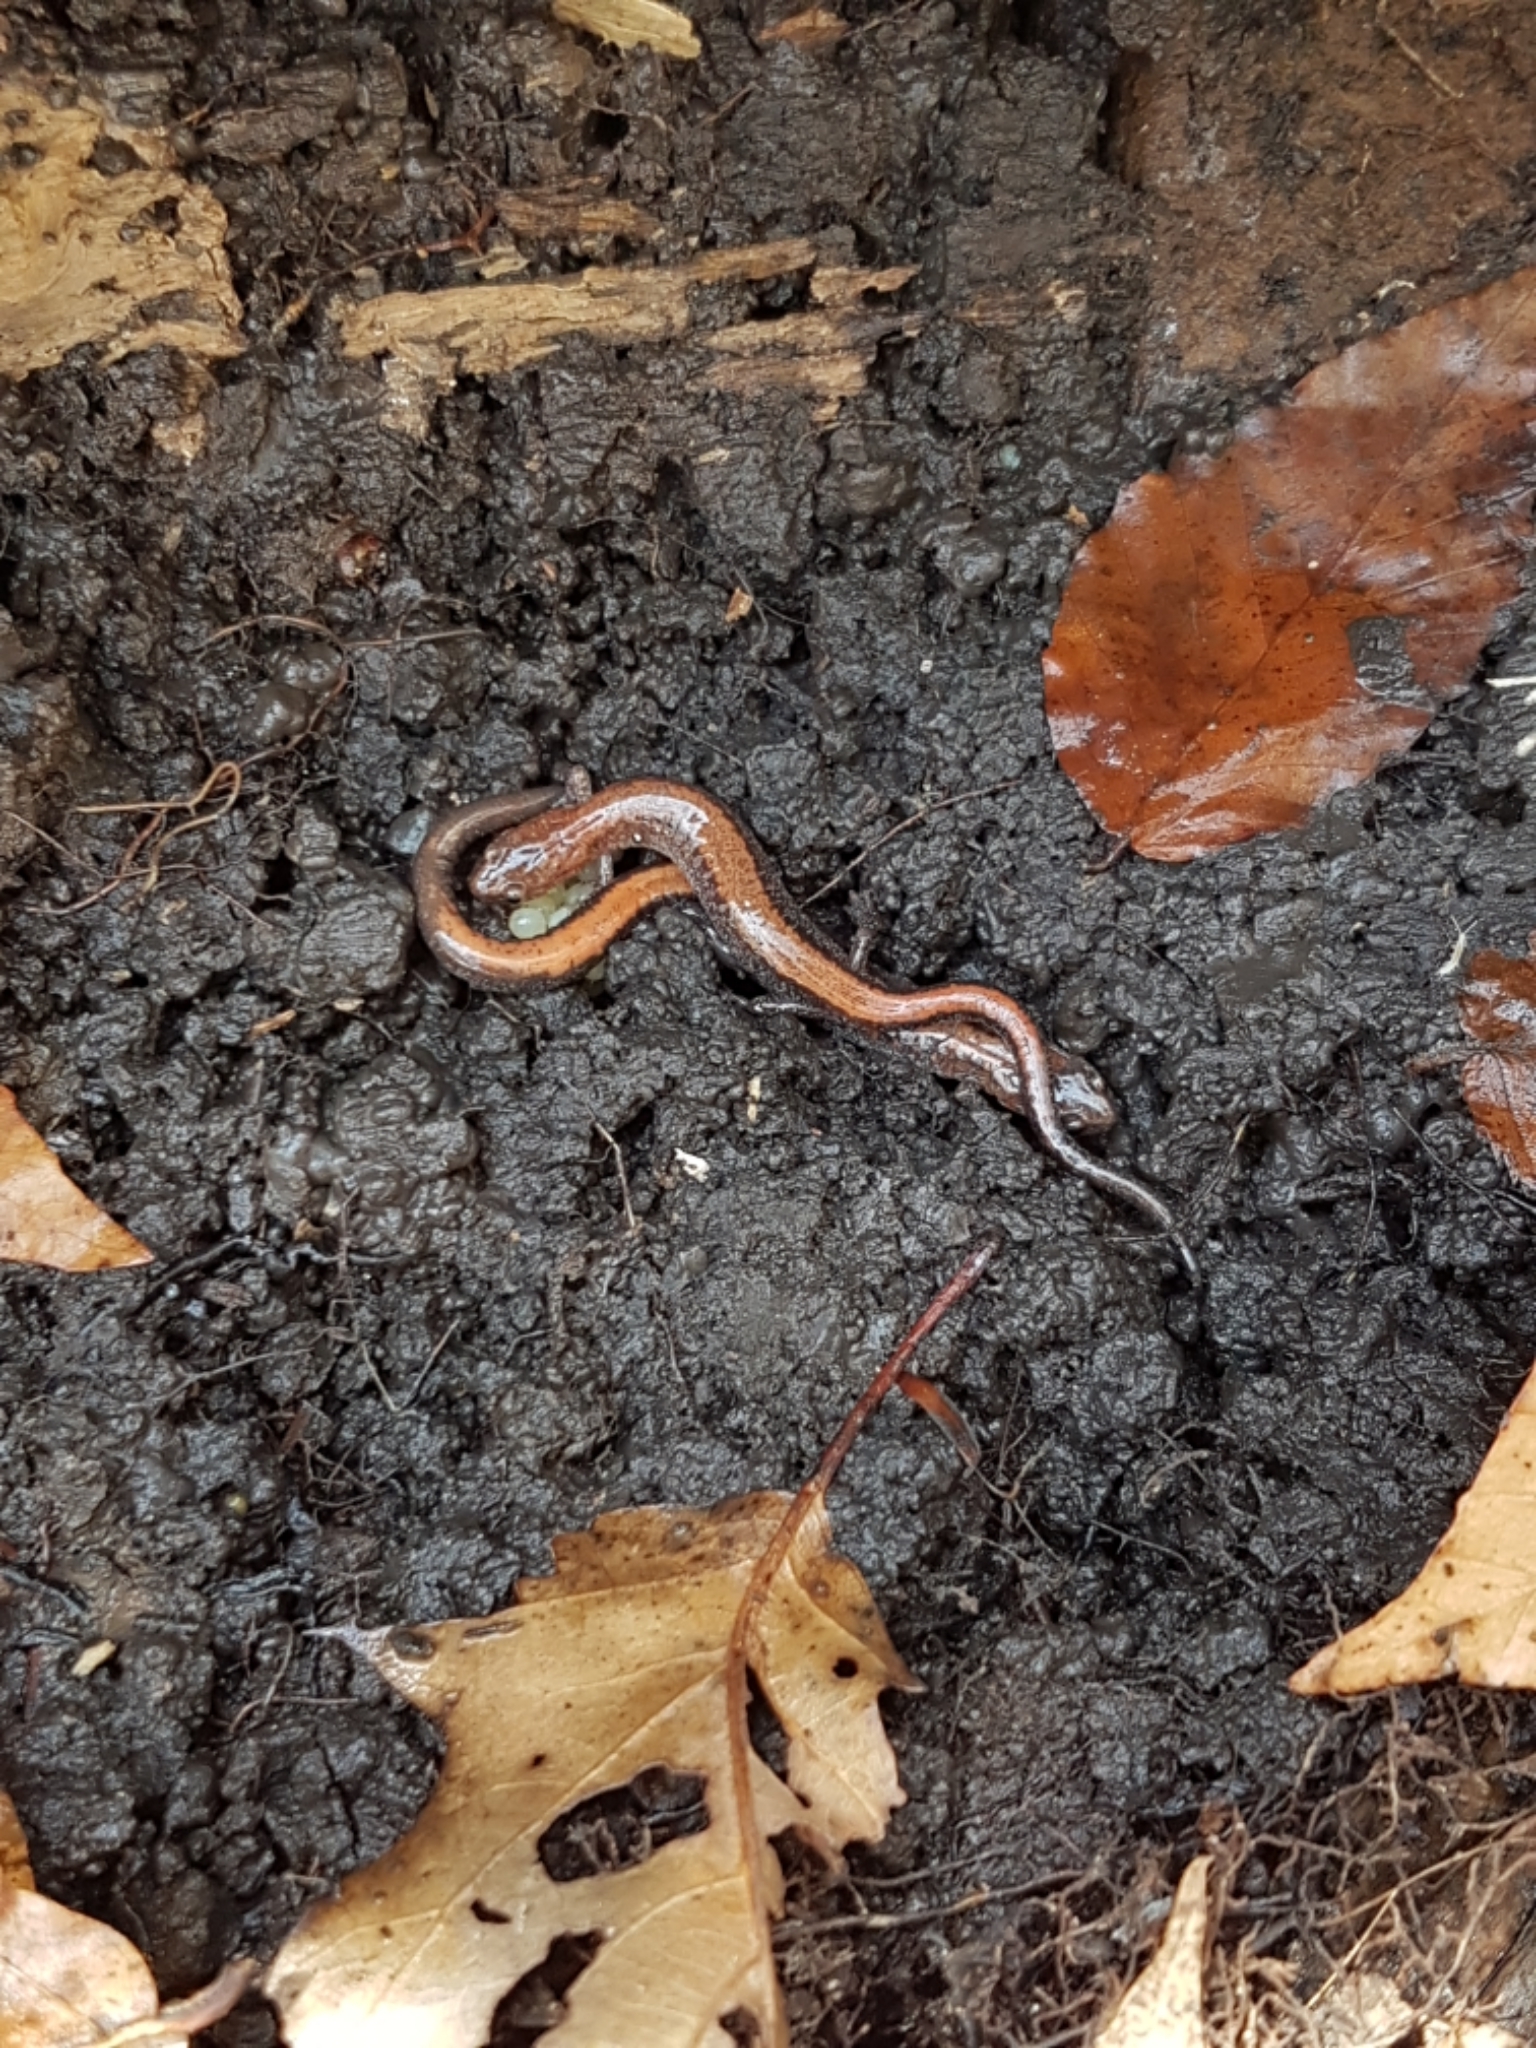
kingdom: Animalia
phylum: Chordata
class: Amphibia
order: Caudata
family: Plethodontidae
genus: Plethodon
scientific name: Plethodon cinereus
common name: Redback salamander
